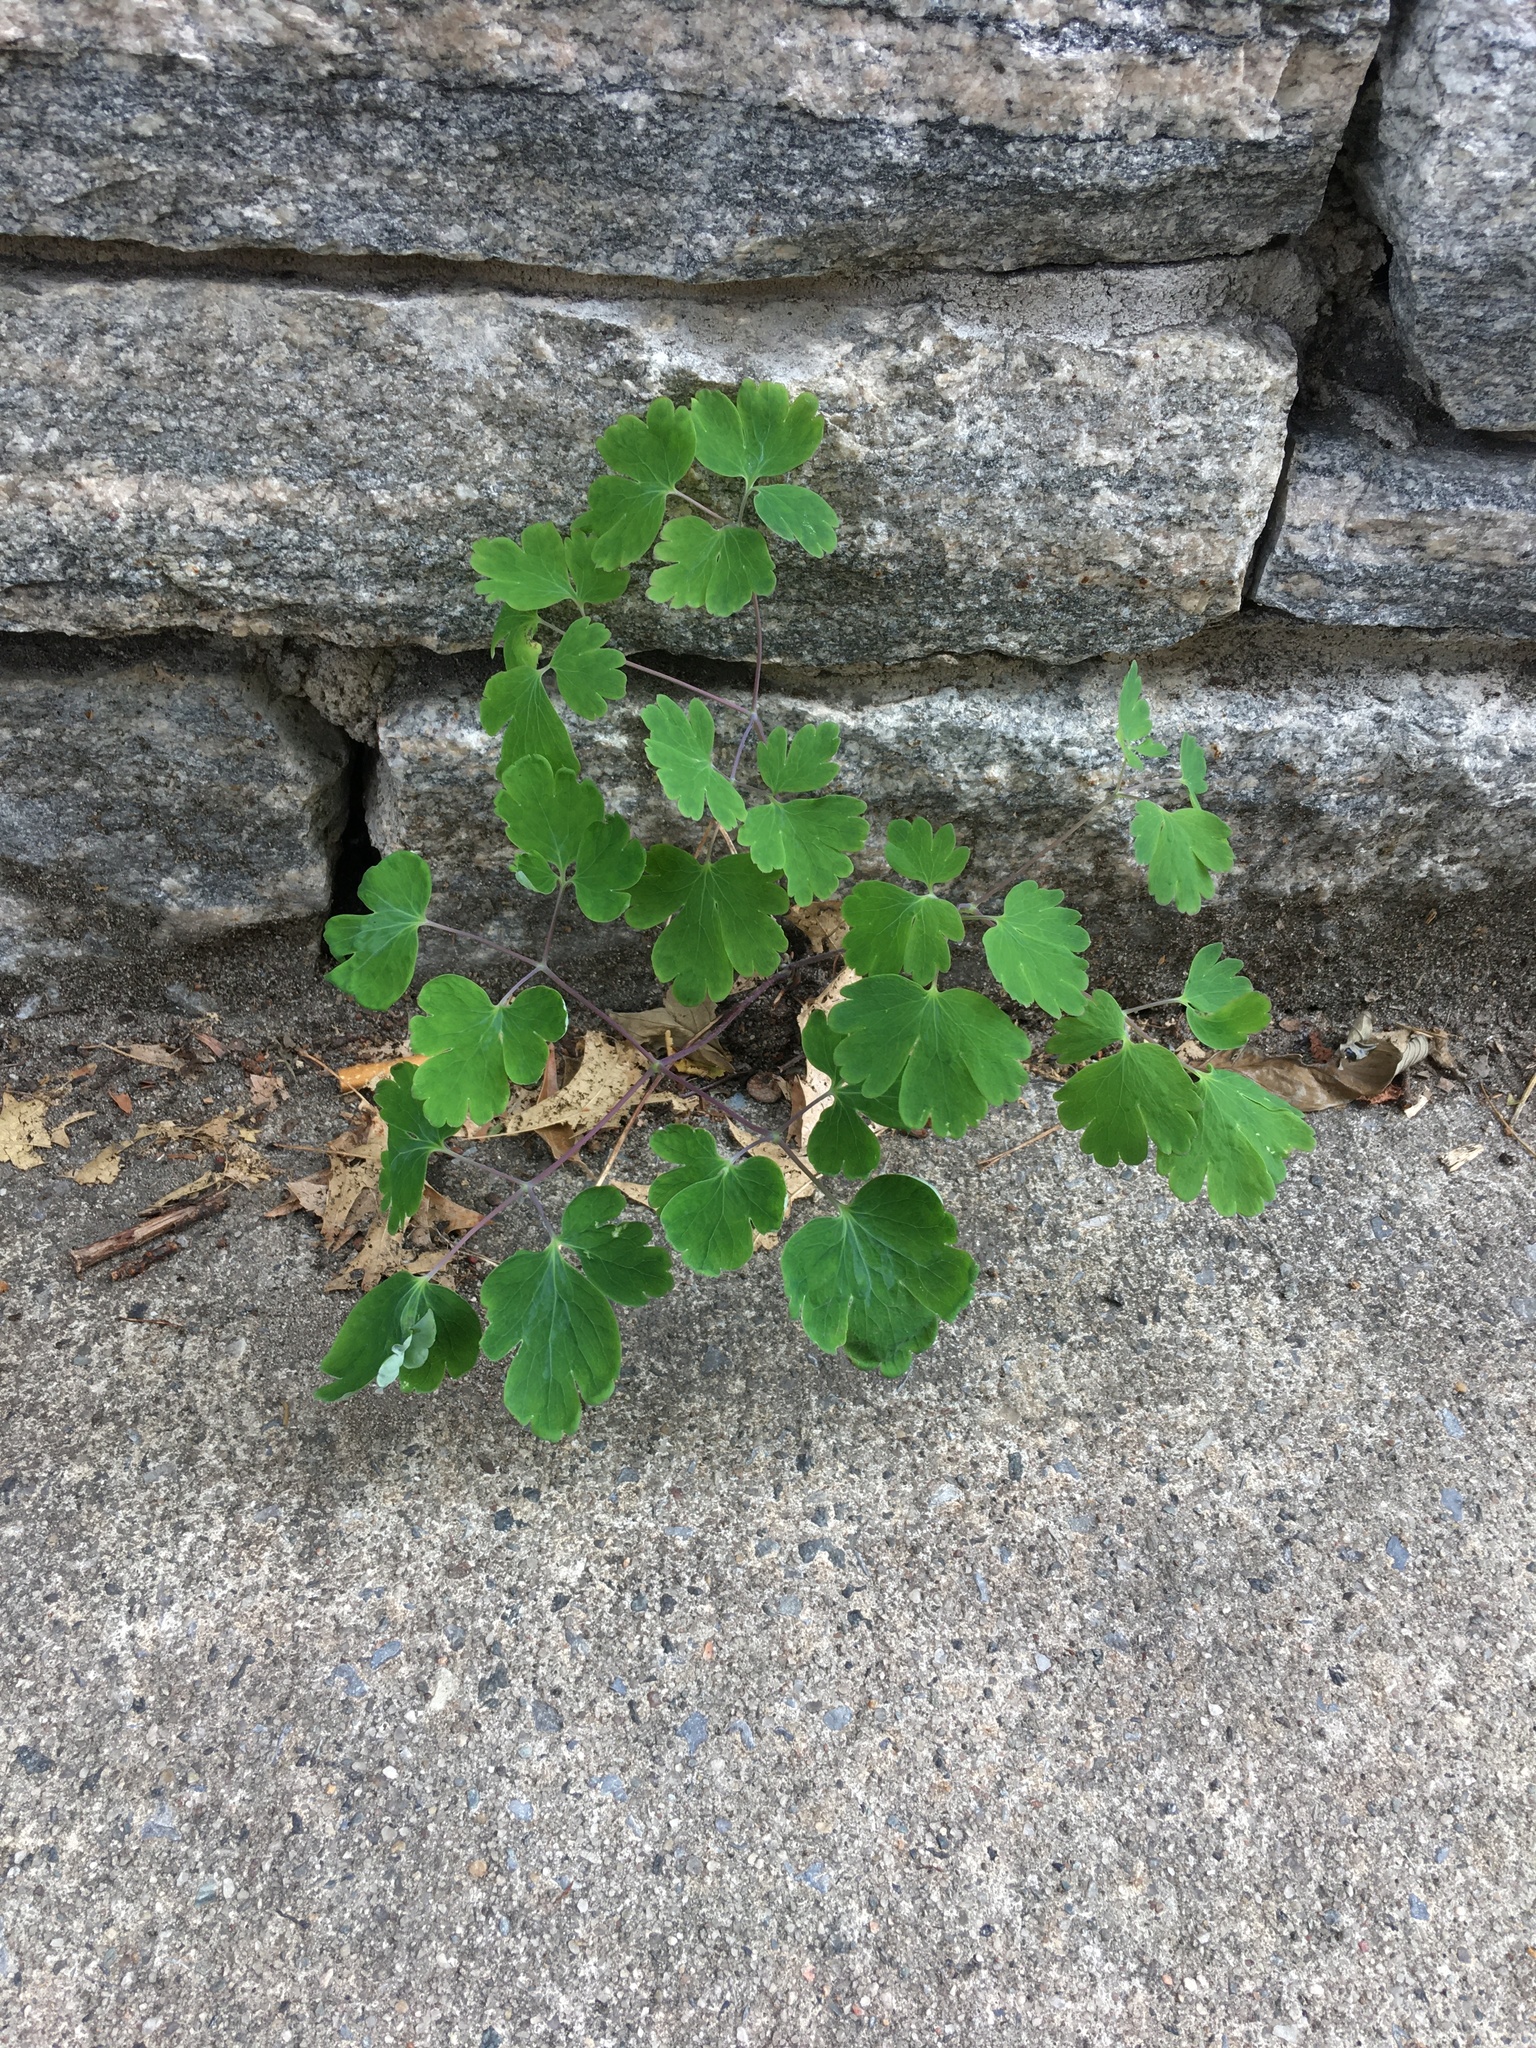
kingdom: Plantae
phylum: Tracheophyta
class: Magnoliopsida
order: Ranunculales
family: Ranunculaceae
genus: Aquilegia
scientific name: Aquilegia canadensis
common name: American columbine
